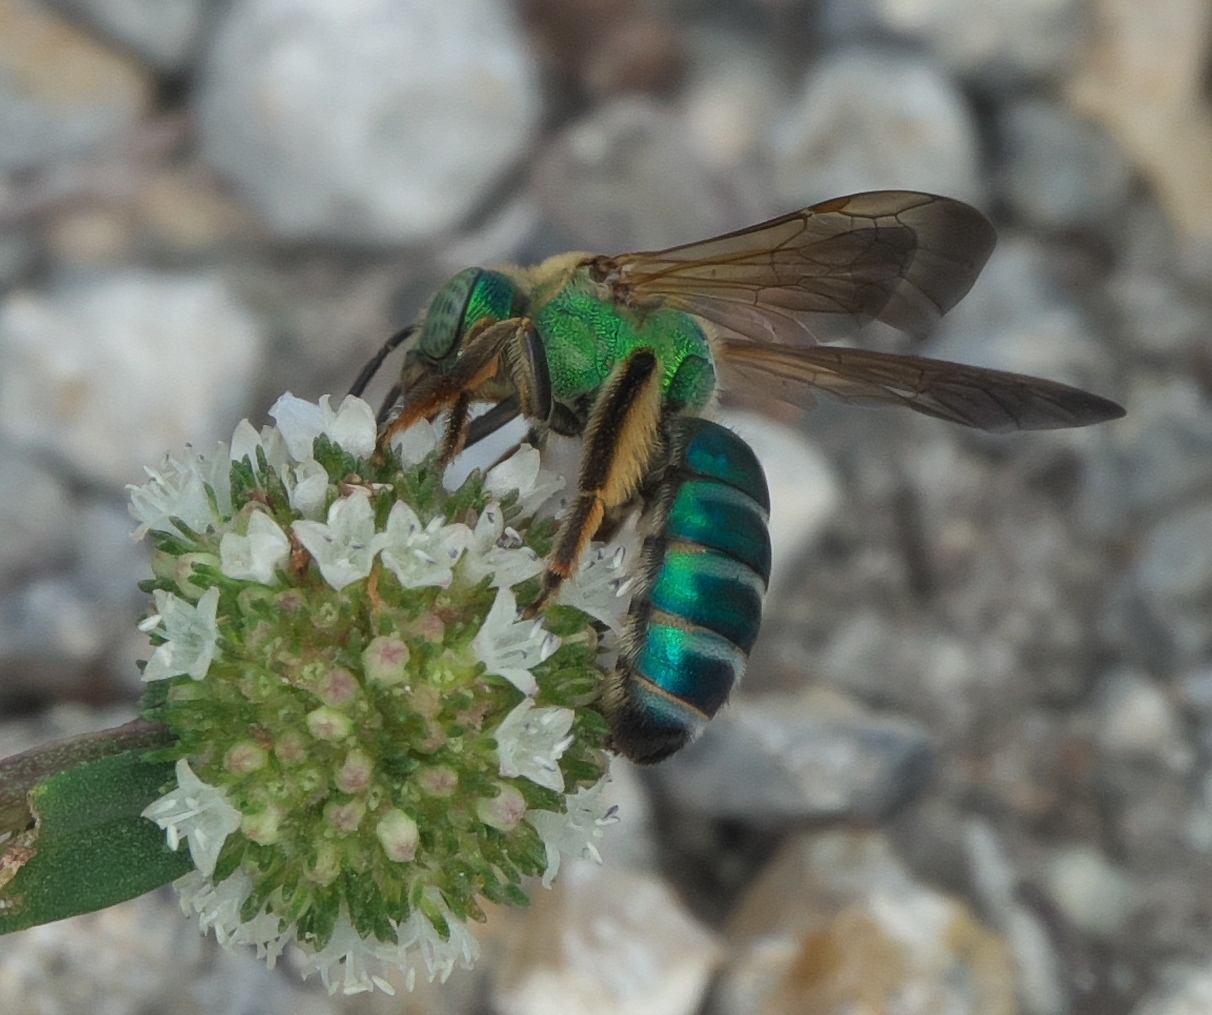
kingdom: Animalia
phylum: Arthropoda
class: Insecta
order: Hymenoptera
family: Halictidae
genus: Agapostemon
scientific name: Agapostemon splendens
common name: Brown-winged striped sweat bee
